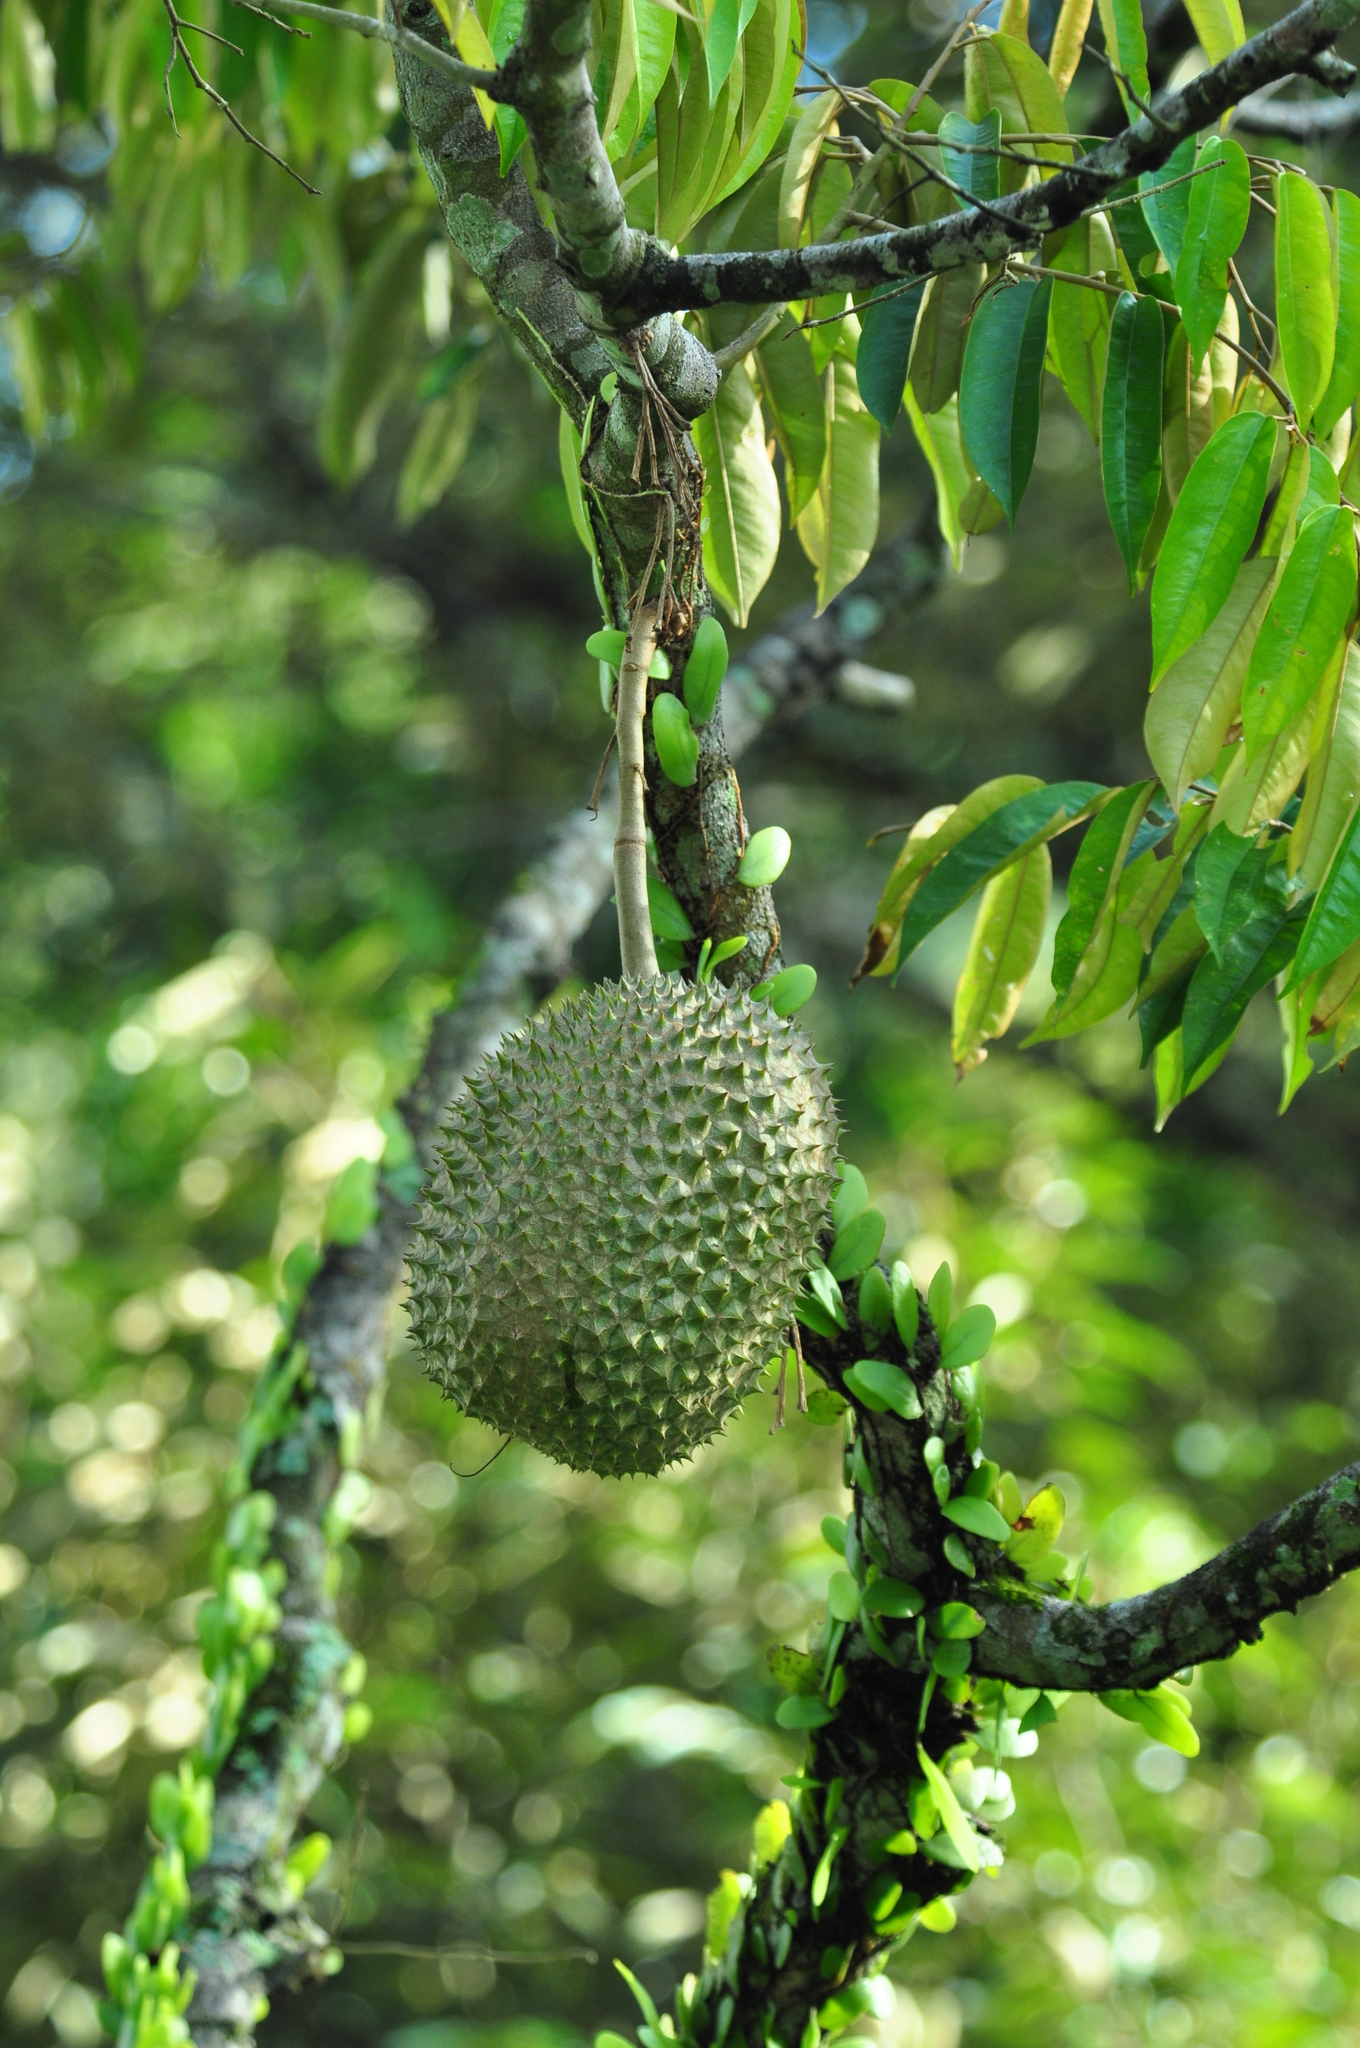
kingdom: Plantae
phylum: Tracheophyta
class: Magnoliopsida
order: Malvales
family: Malvaceae
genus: Durio
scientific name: Durio zibethinus
